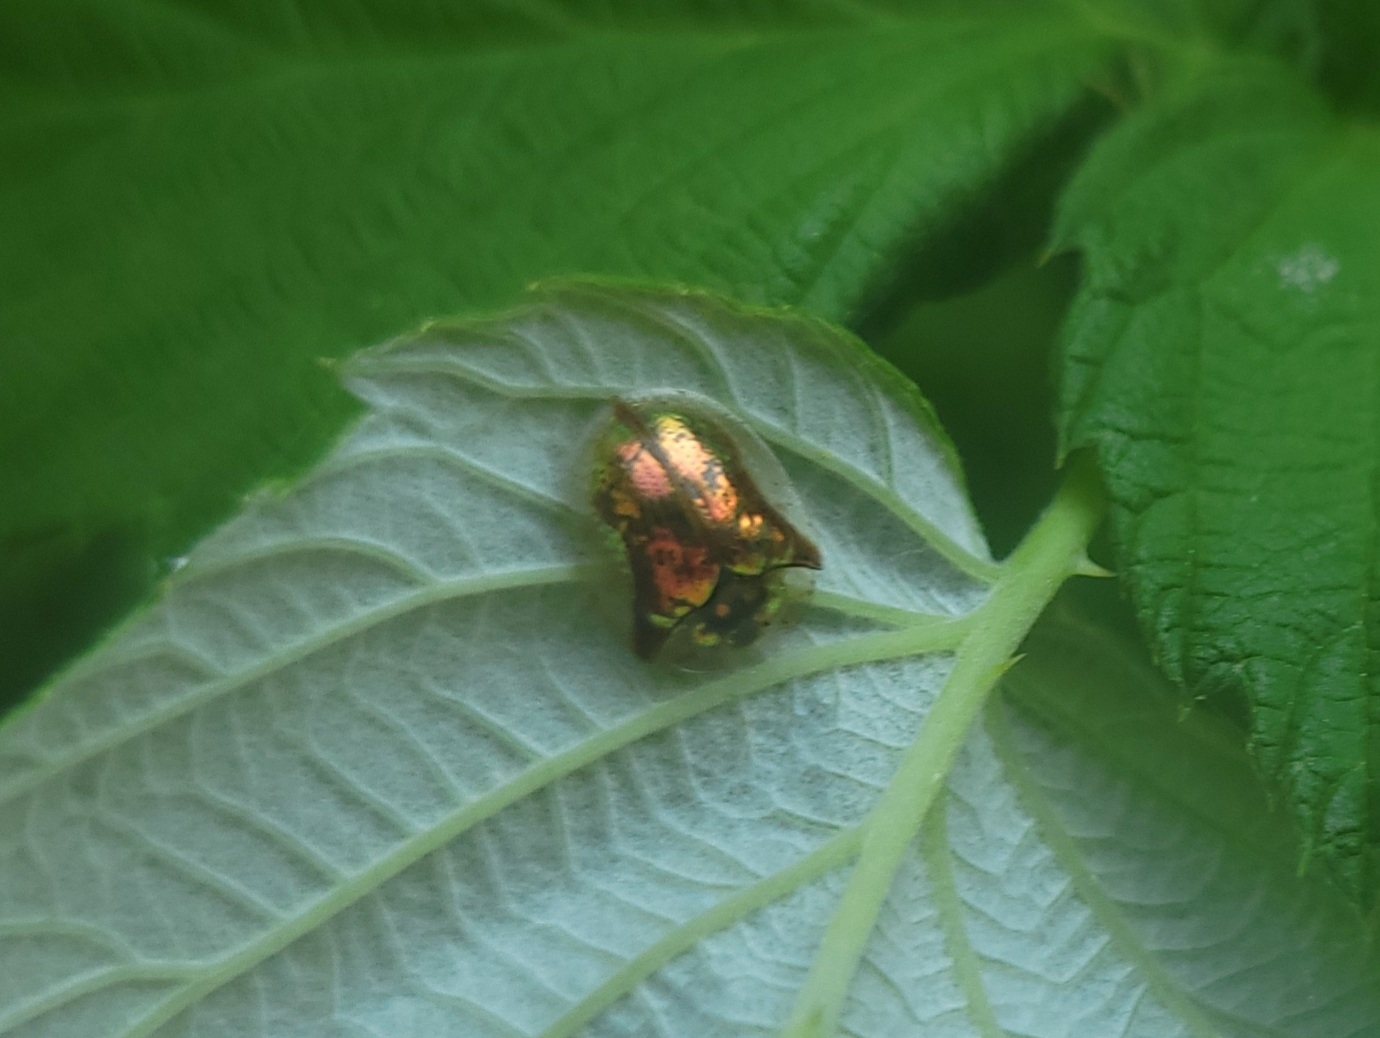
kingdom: Animalia
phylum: Arthropoda
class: Insecta
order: Coleoptera
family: Chrysomelidae
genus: Deloyala
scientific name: Deloyala guttata
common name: Mottled tortoise beetle
